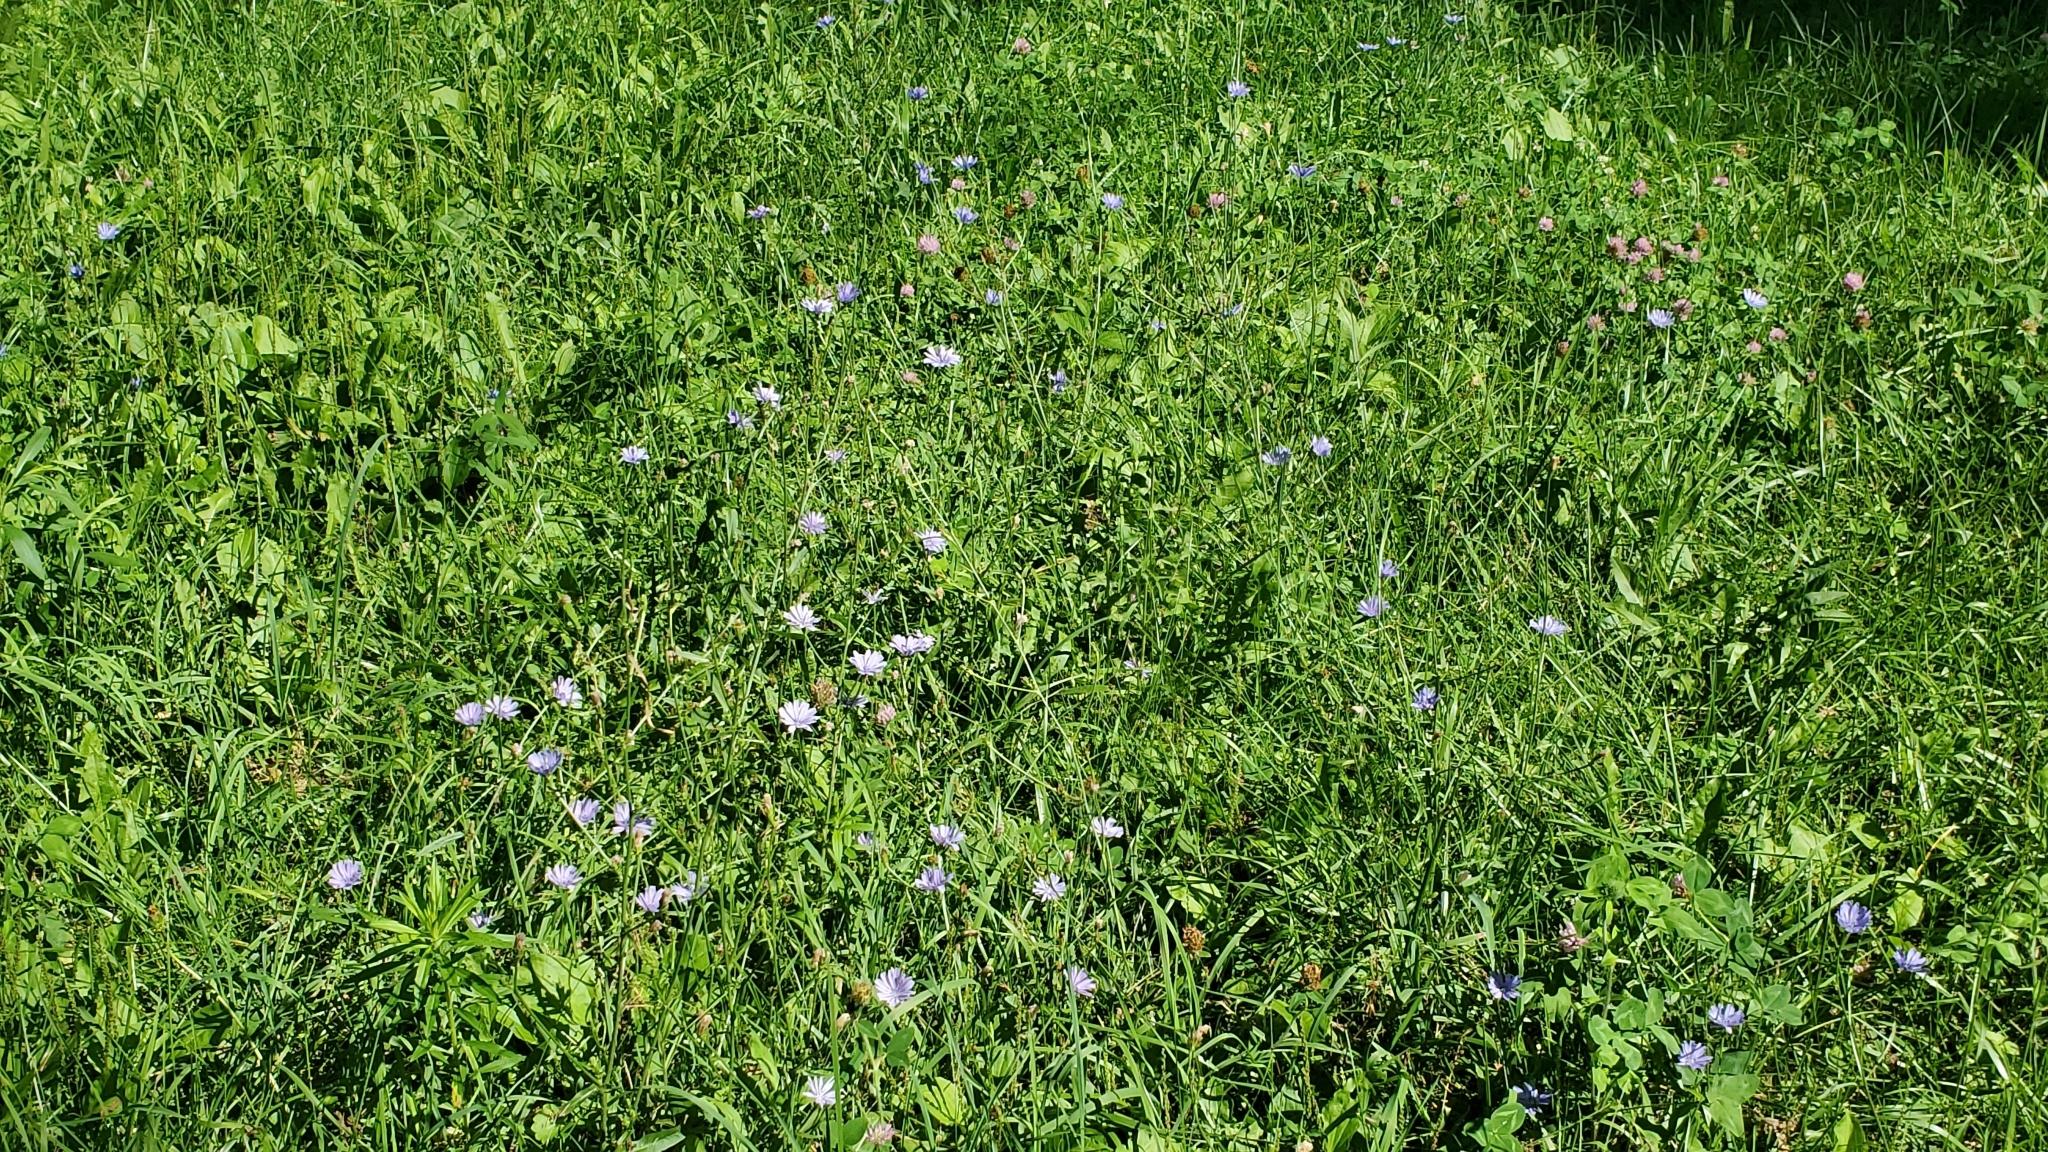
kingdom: Plantae
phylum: Tracheophyta
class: Magnoliopsida
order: Asterales
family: Asteraceae
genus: Cichorium
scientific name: Cichorium intybus
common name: Chicory
